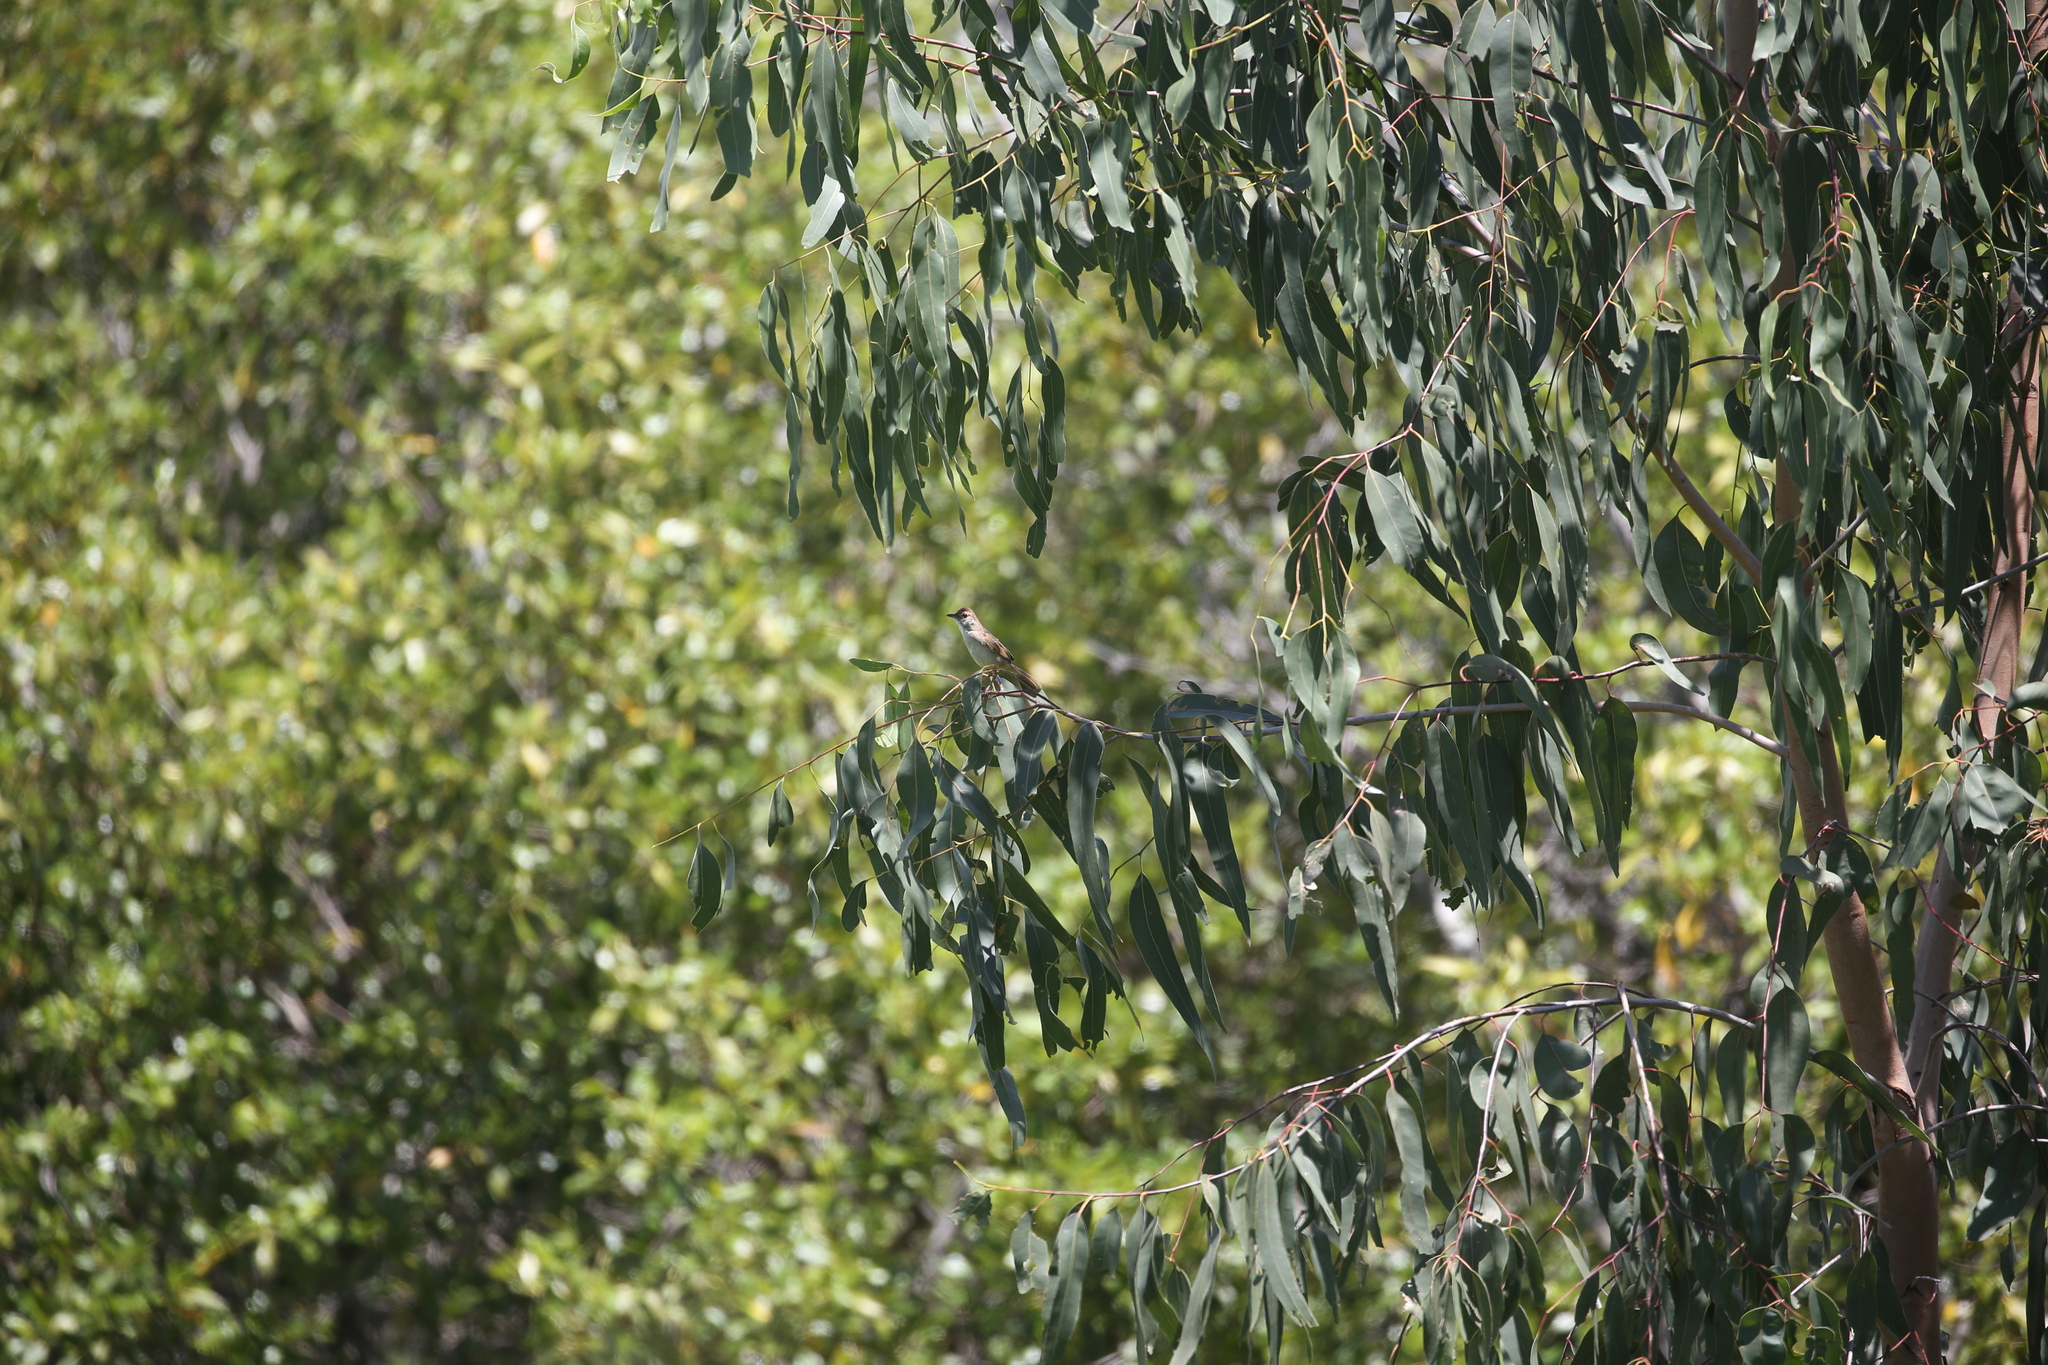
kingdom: Animalia
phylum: Chordata
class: Aves
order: Passeriformes
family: Locustellidae
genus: Megalurus
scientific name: Megalurus timoriensis
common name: Tawny grassbird
